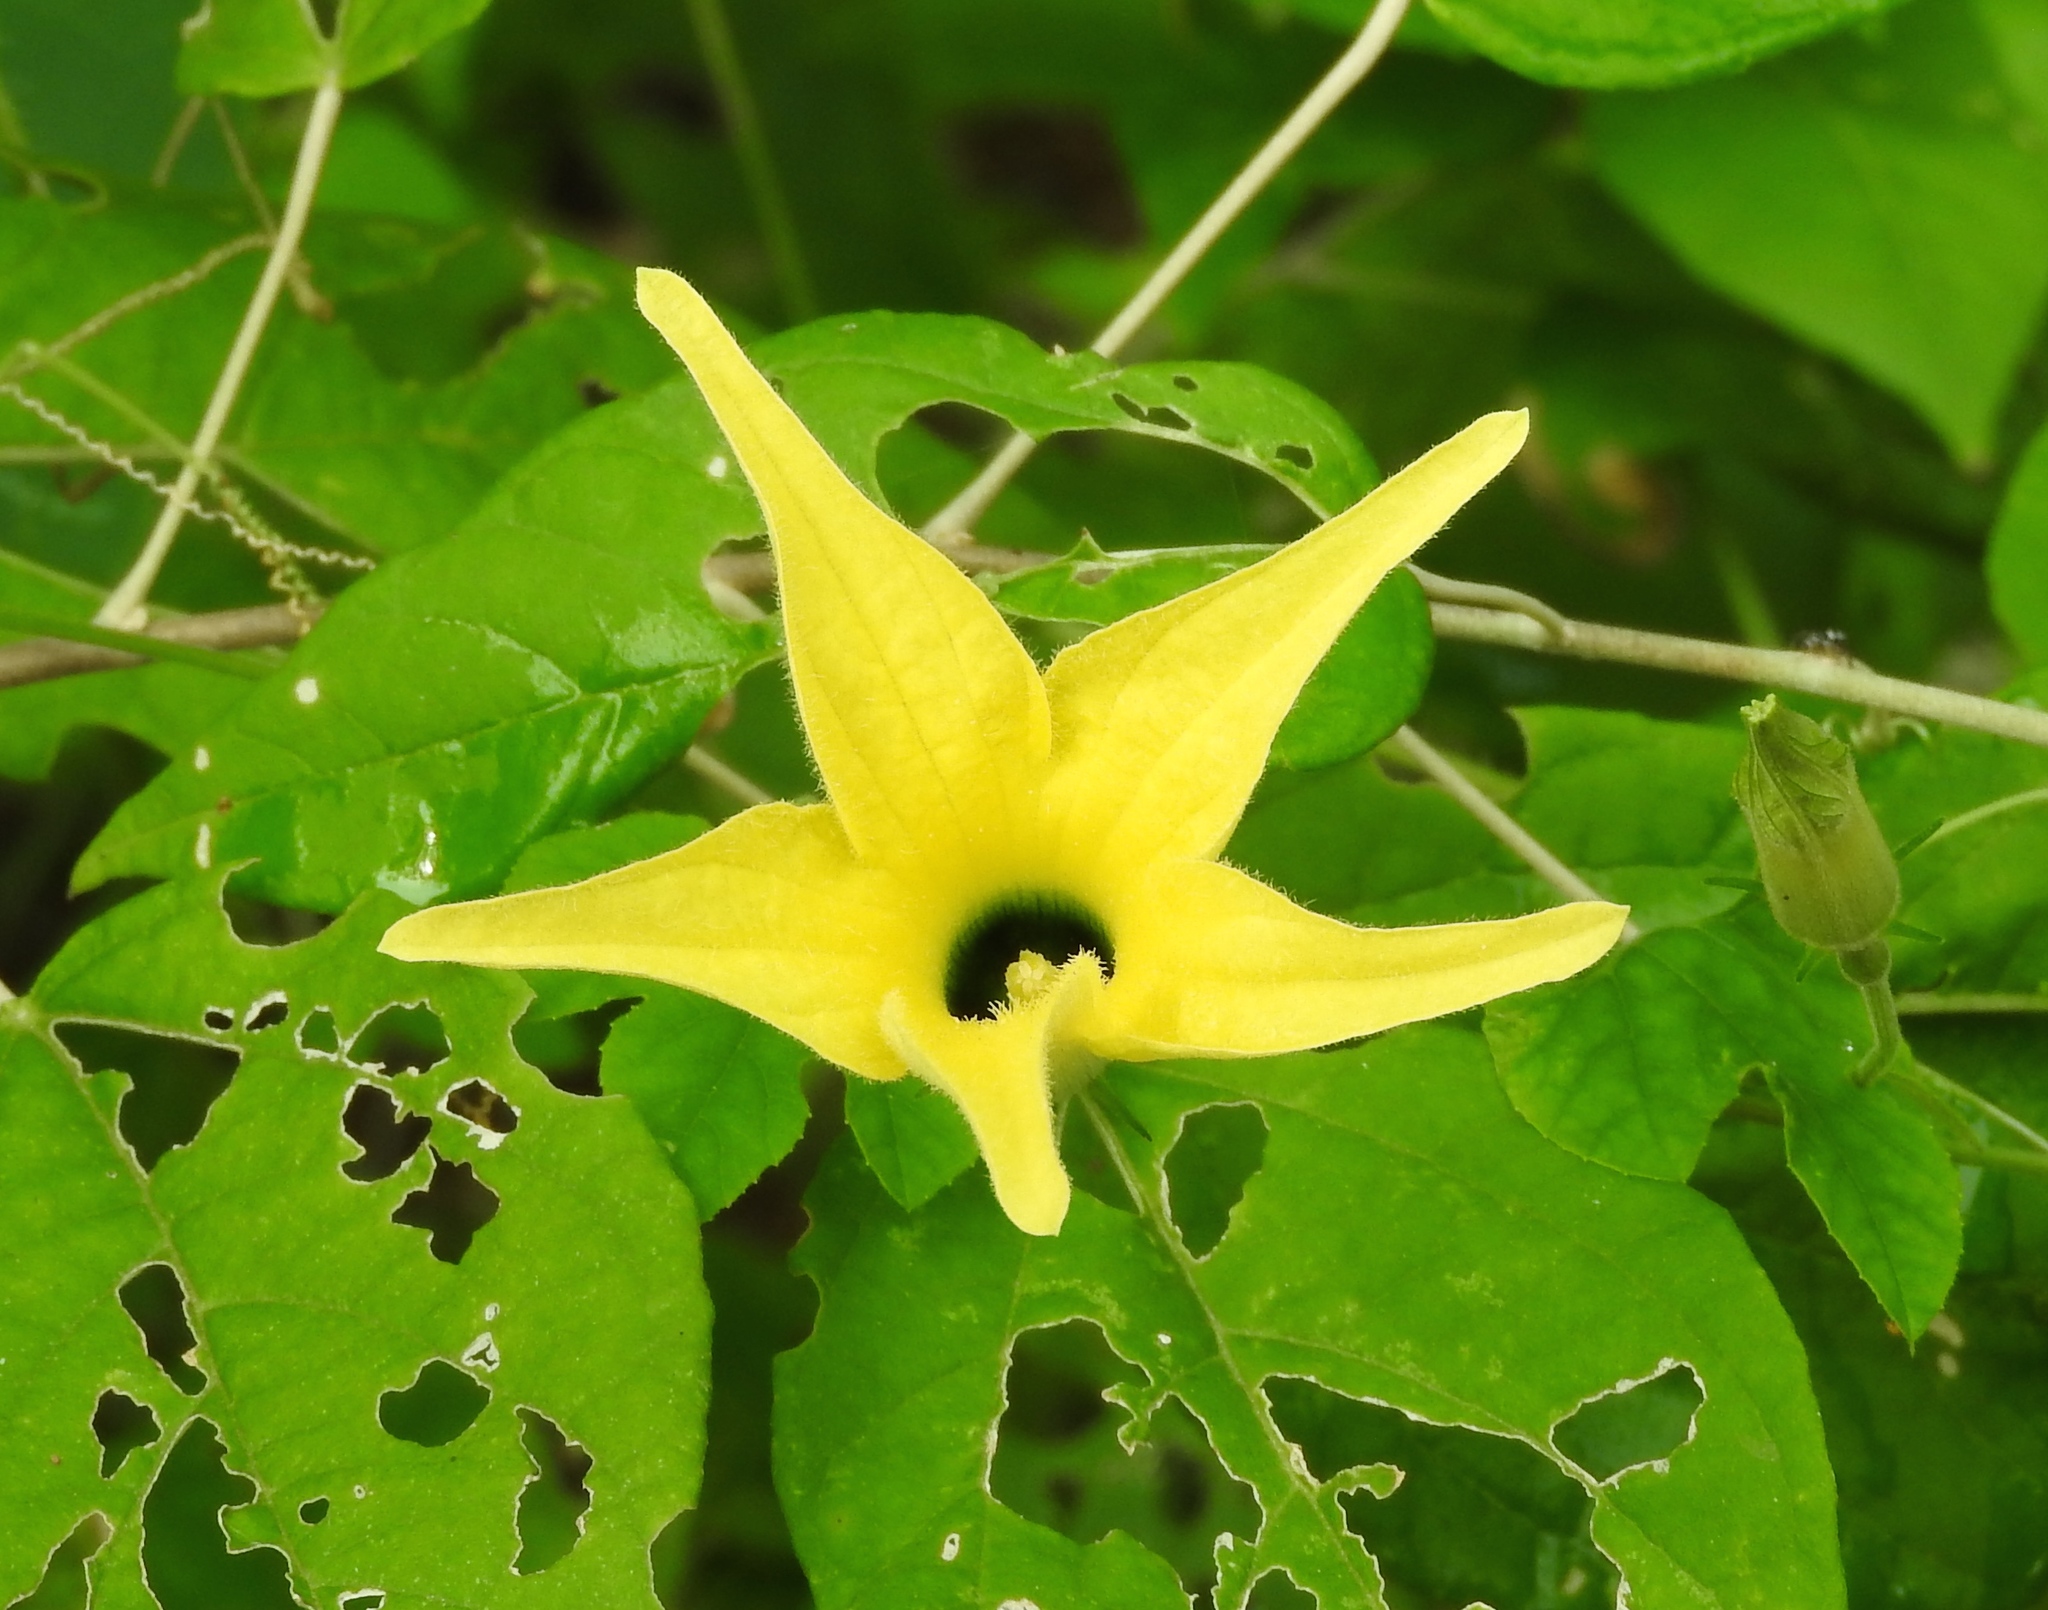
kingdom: Plantae
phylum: Tracheophyta
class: Magnoliopsida
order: Cucurbitales
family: Cucurbitaceae
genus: Schizocarpum
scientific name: Schizocarpum parviflorum
